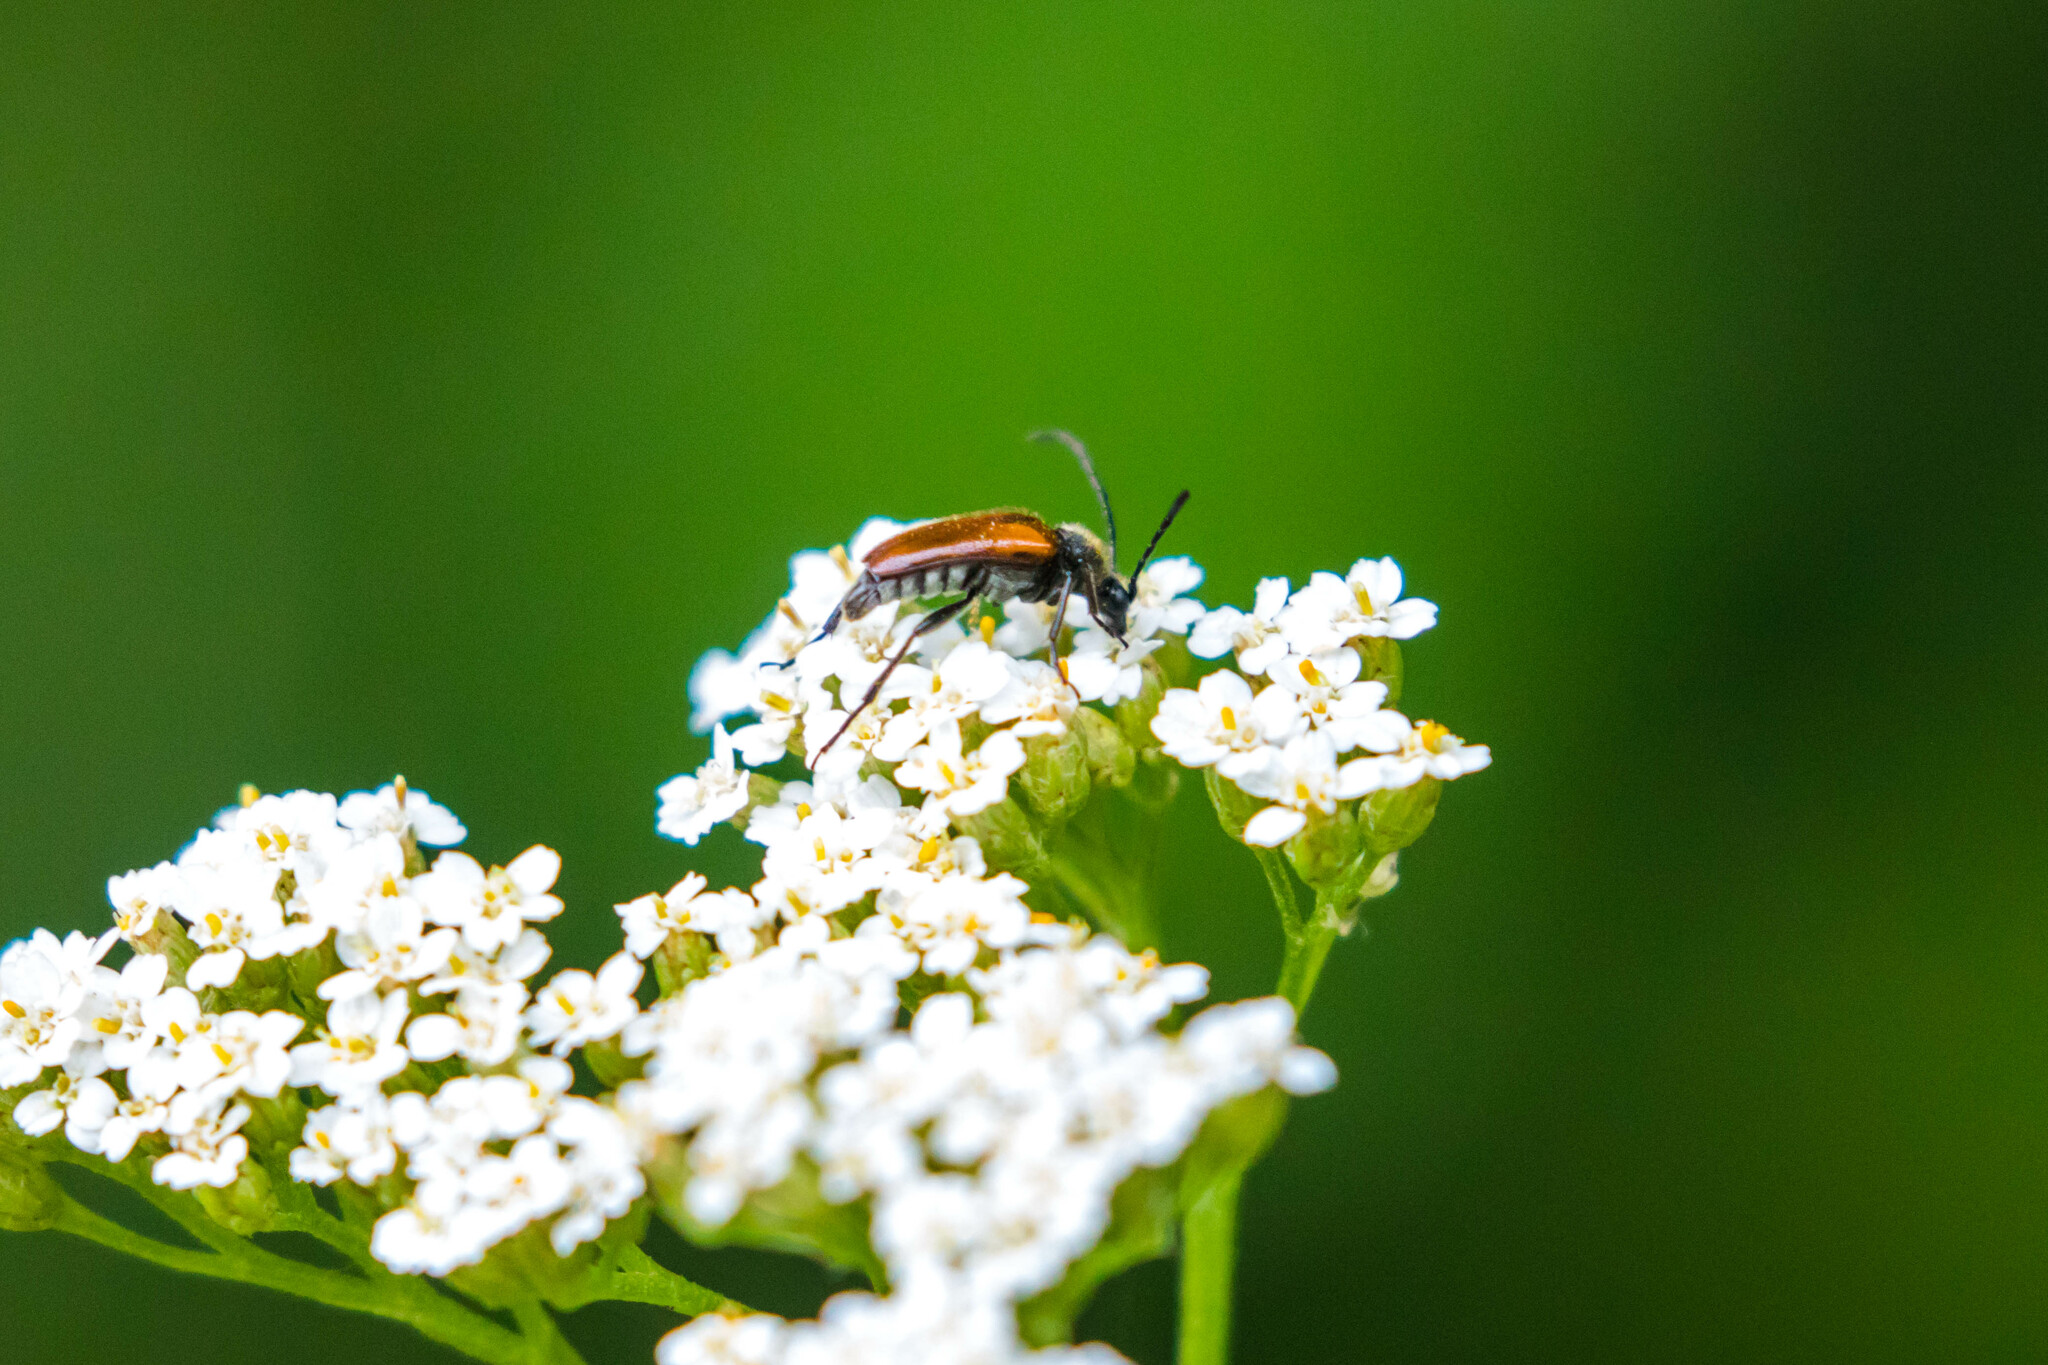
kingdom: Animalia
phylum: Arthropoda
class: Insecta
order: Coleoptera
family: Cerambycidae
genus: Pseudovadonia
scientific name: Pseudovadonia livida
